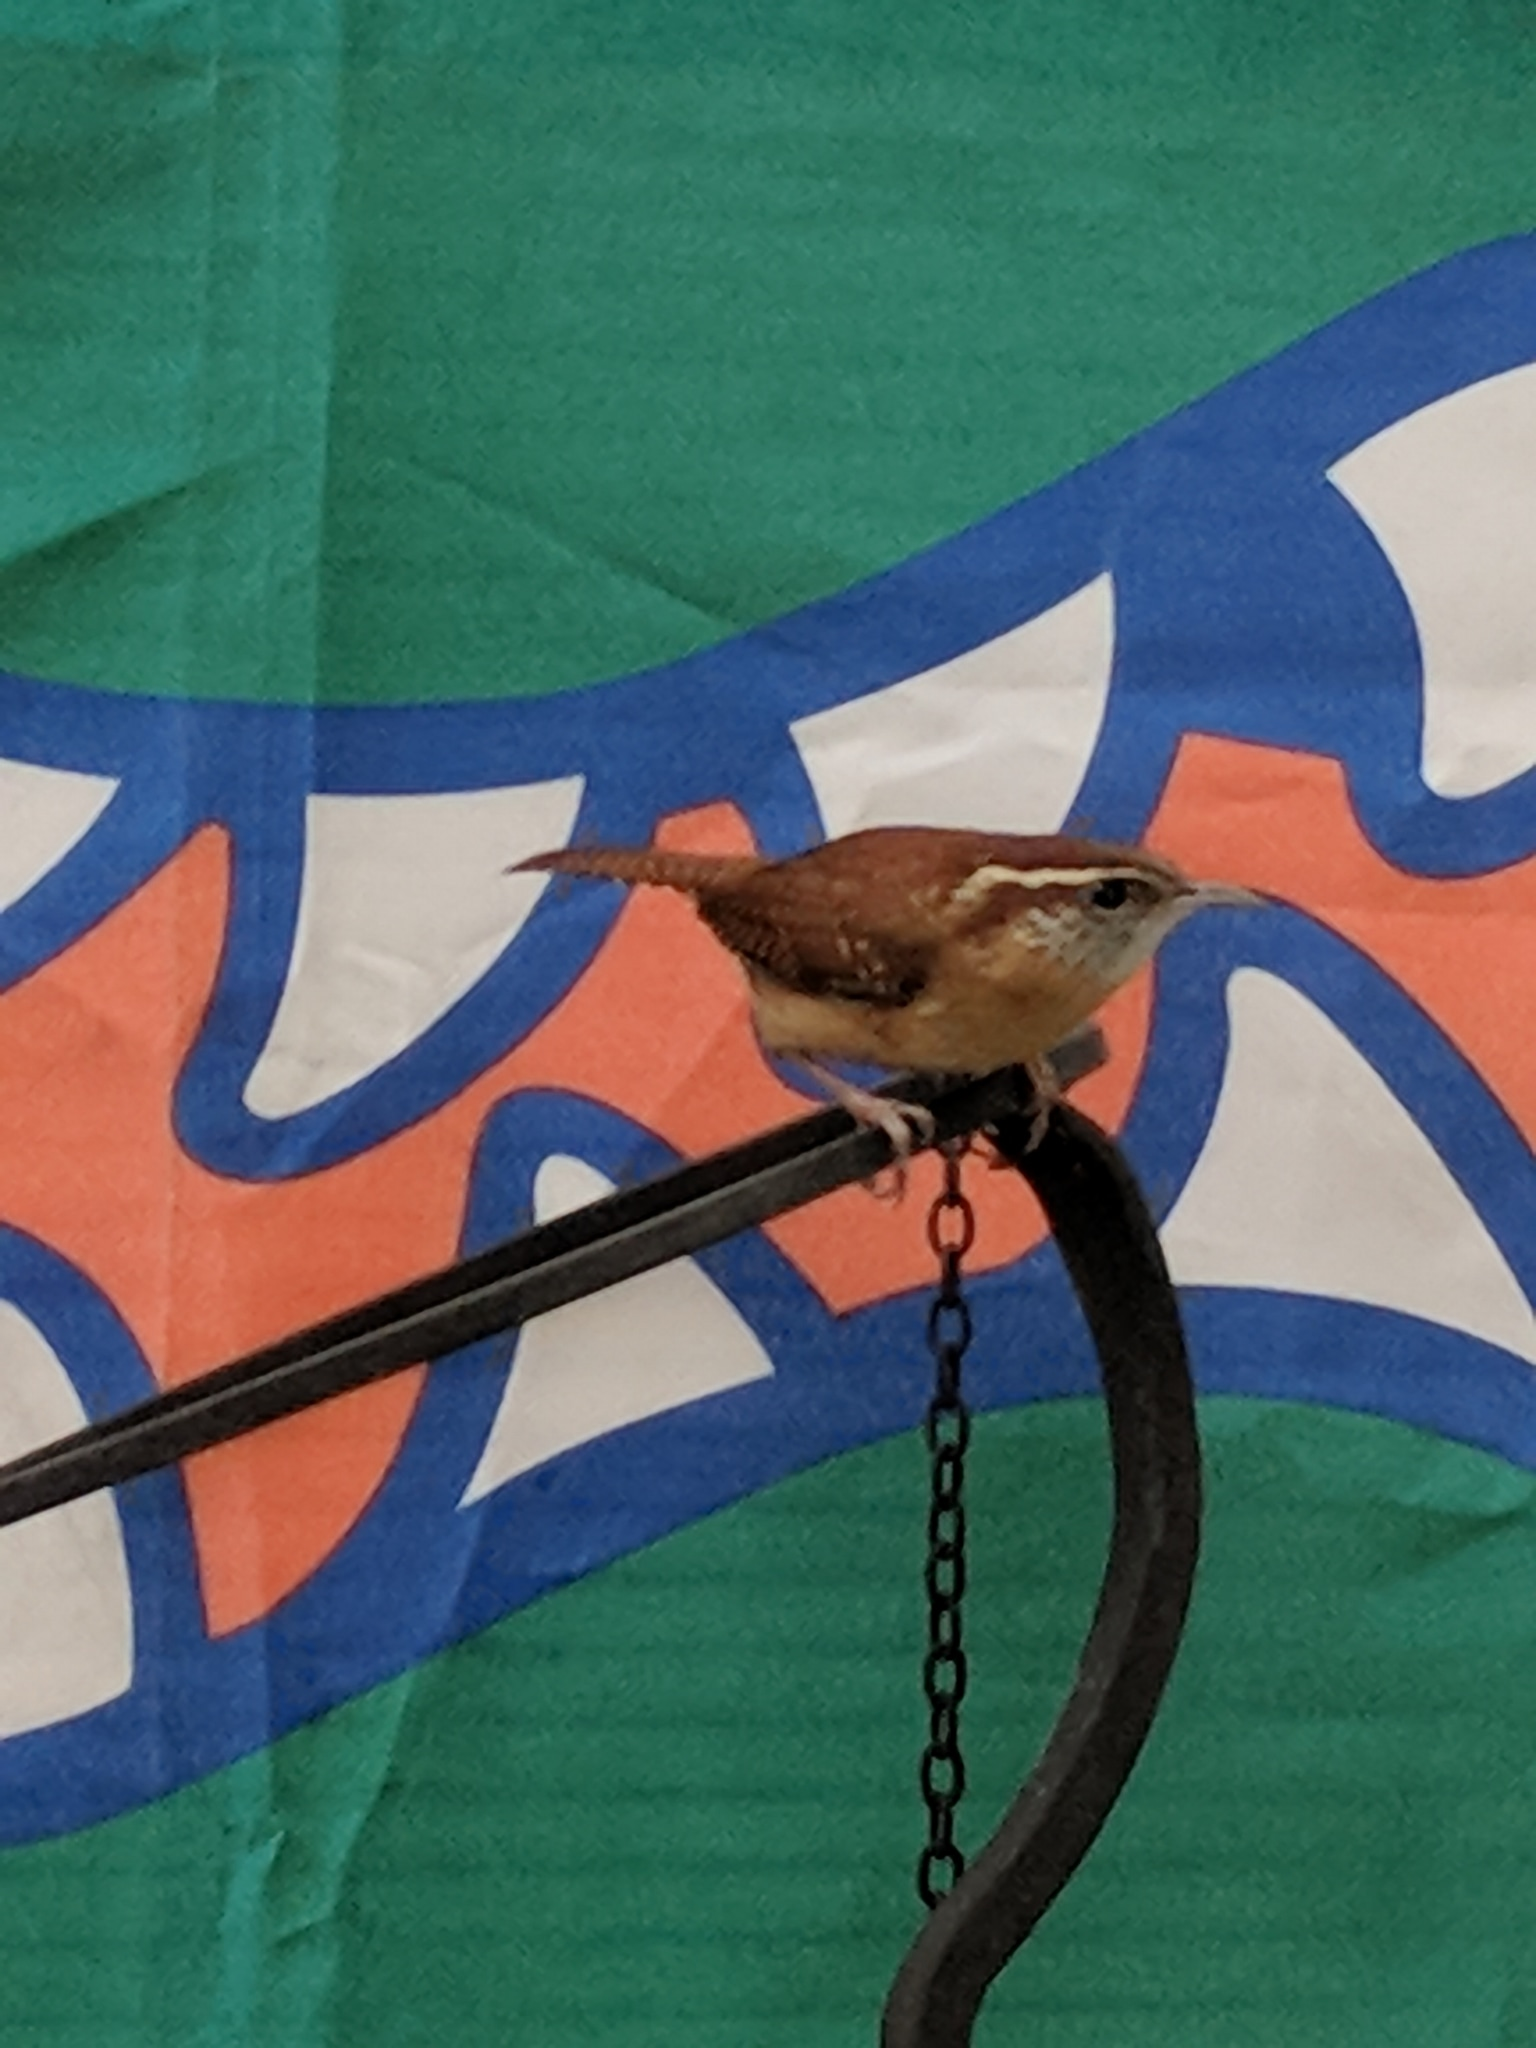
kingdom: Animalia
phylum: Chordata
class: Aves
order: Passeriformes
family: Troglodytidae
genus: Thryothorus
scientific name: Thryothorus ludovicianus
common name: Carolina wren
